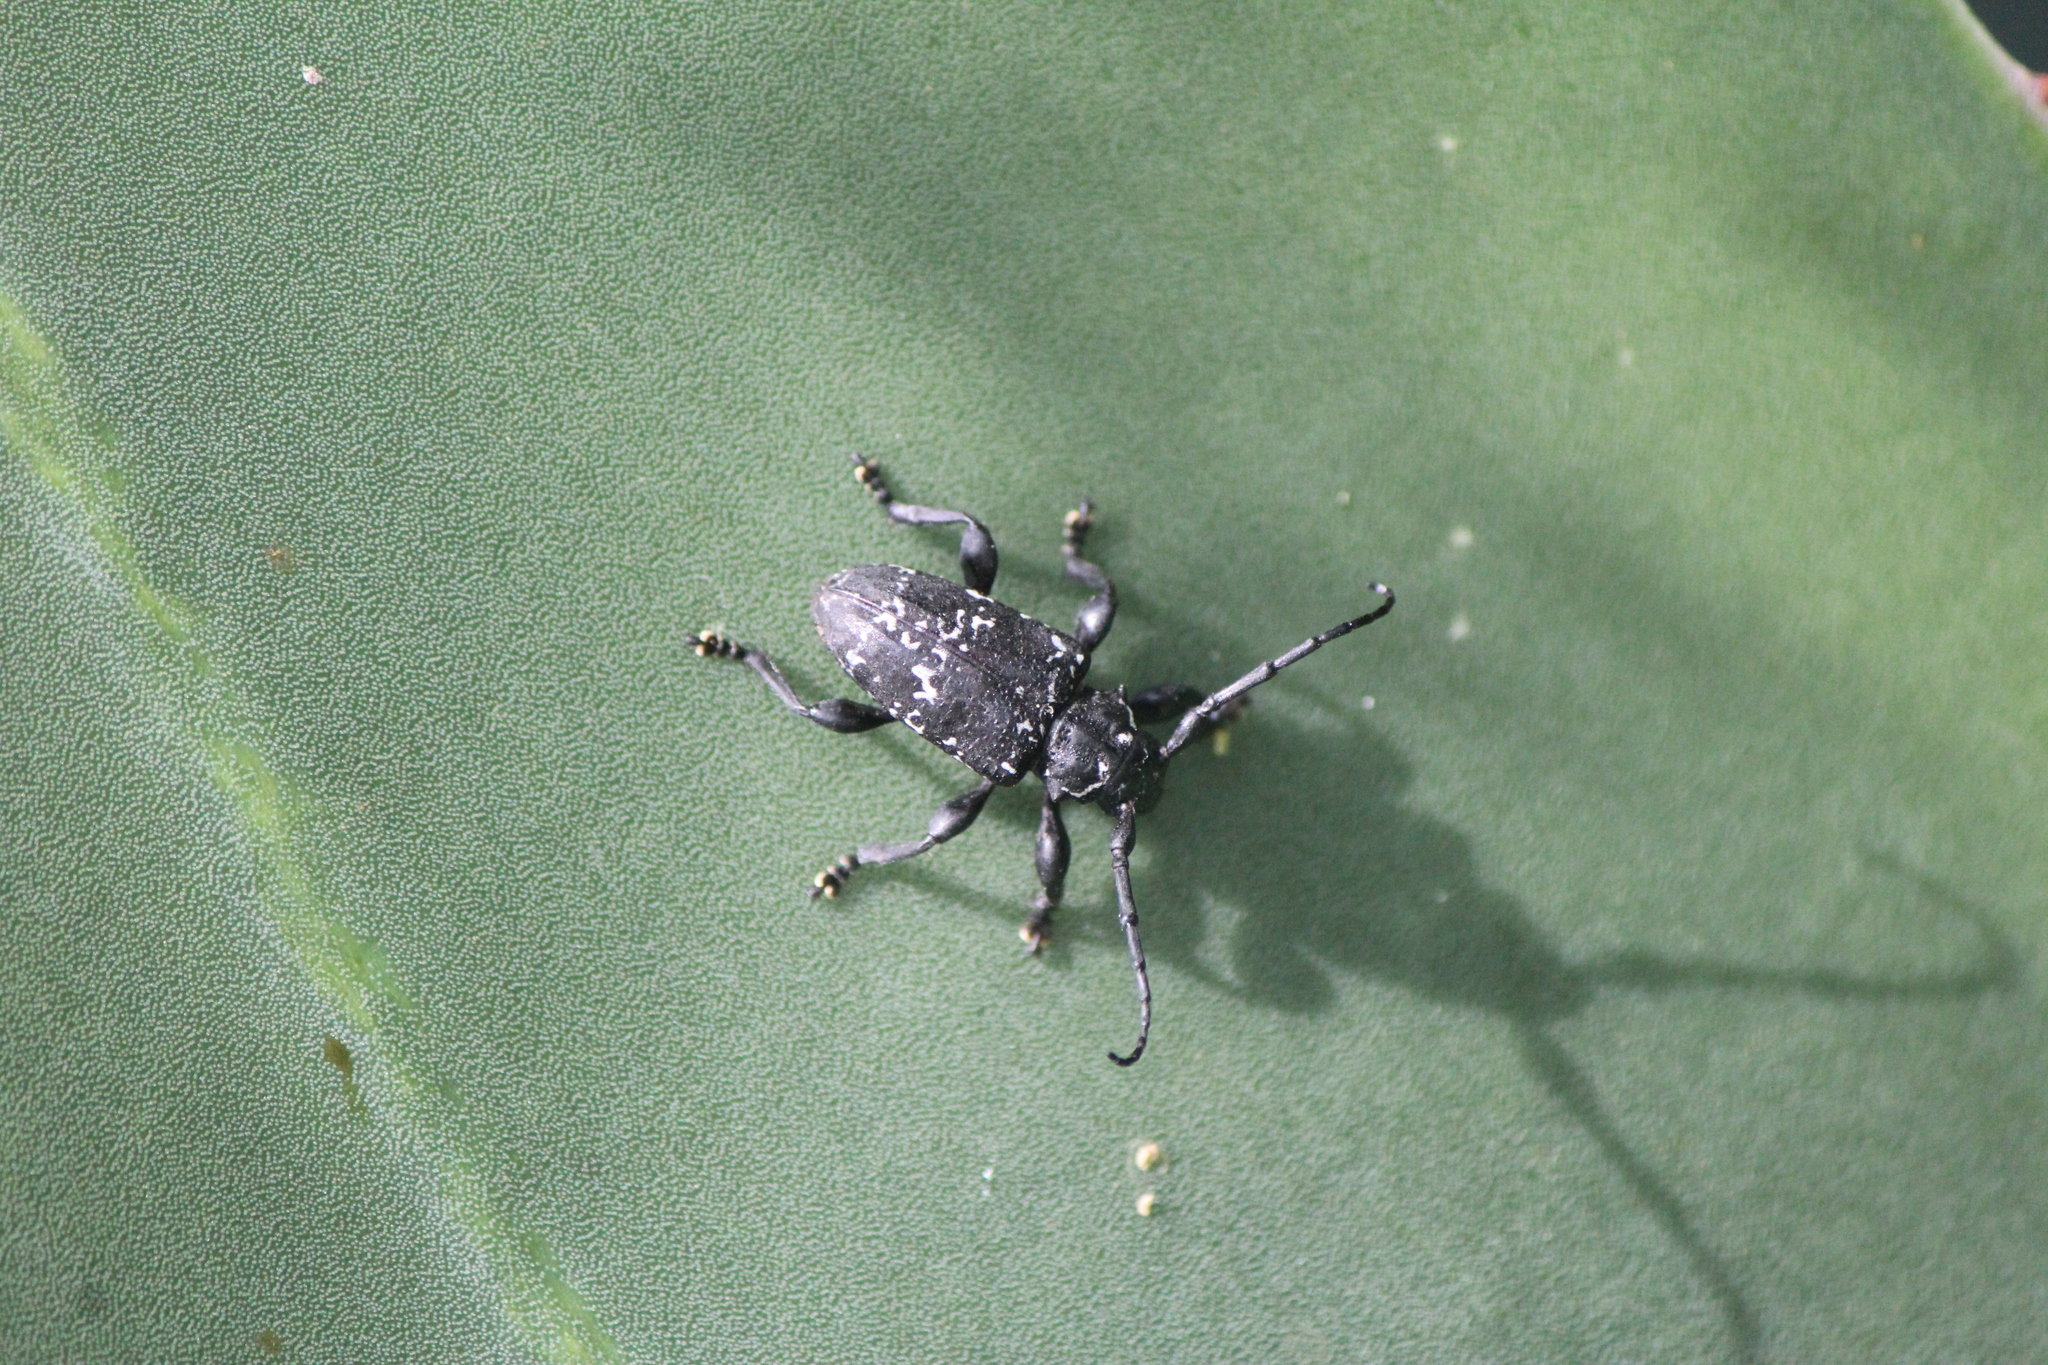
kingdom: Animalia
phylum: Arthropoda
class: Insecta
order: Coleoptera
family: Cerambycidae
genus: Acanthoderes
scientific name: Acanthoderes funeraria
